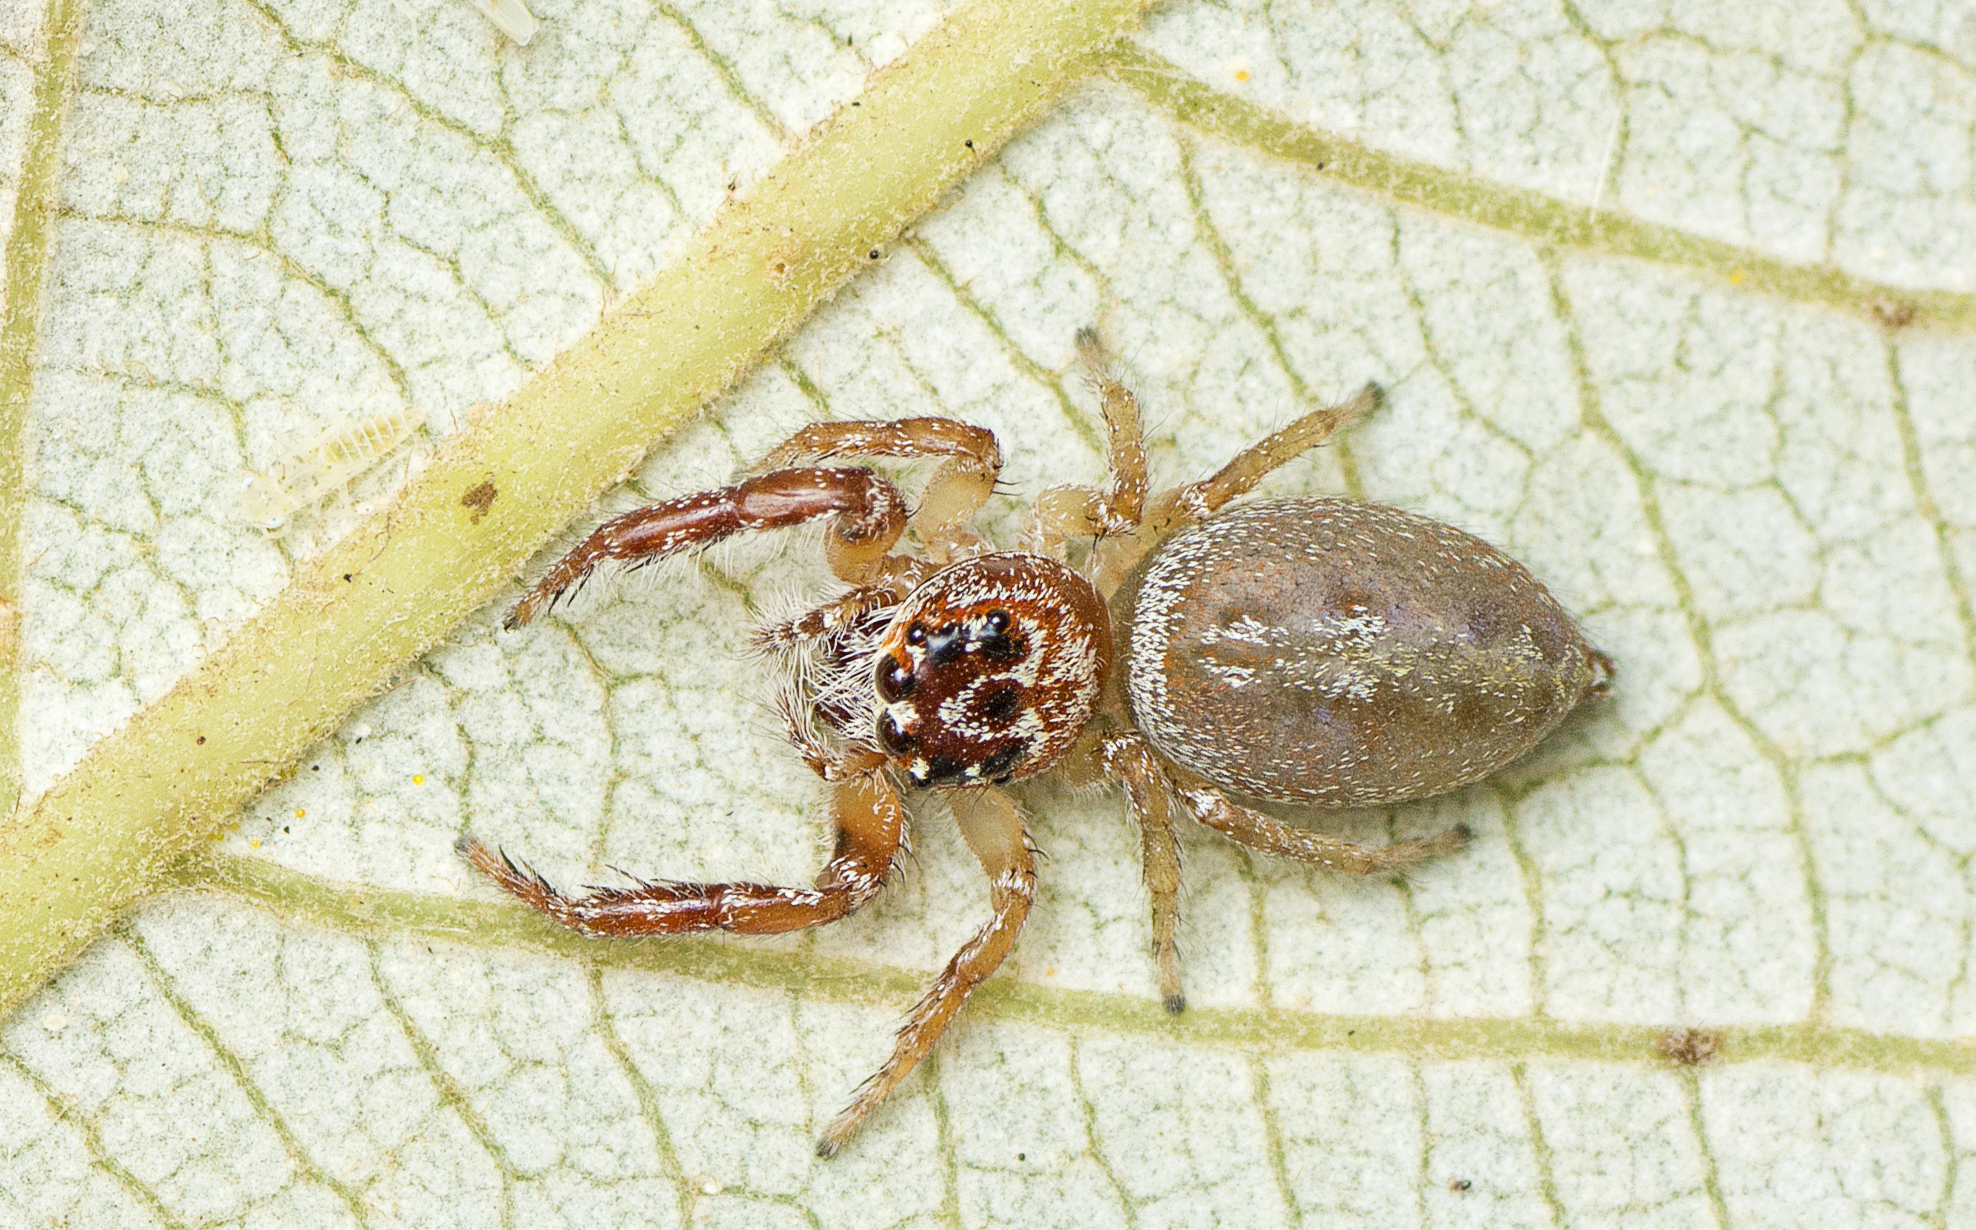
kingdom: Animalia
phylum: Arthropoda
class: Arachnida
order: Araneae
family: Salticidae
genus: Opisthoncus
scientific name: Opisthoncus alborufescens
